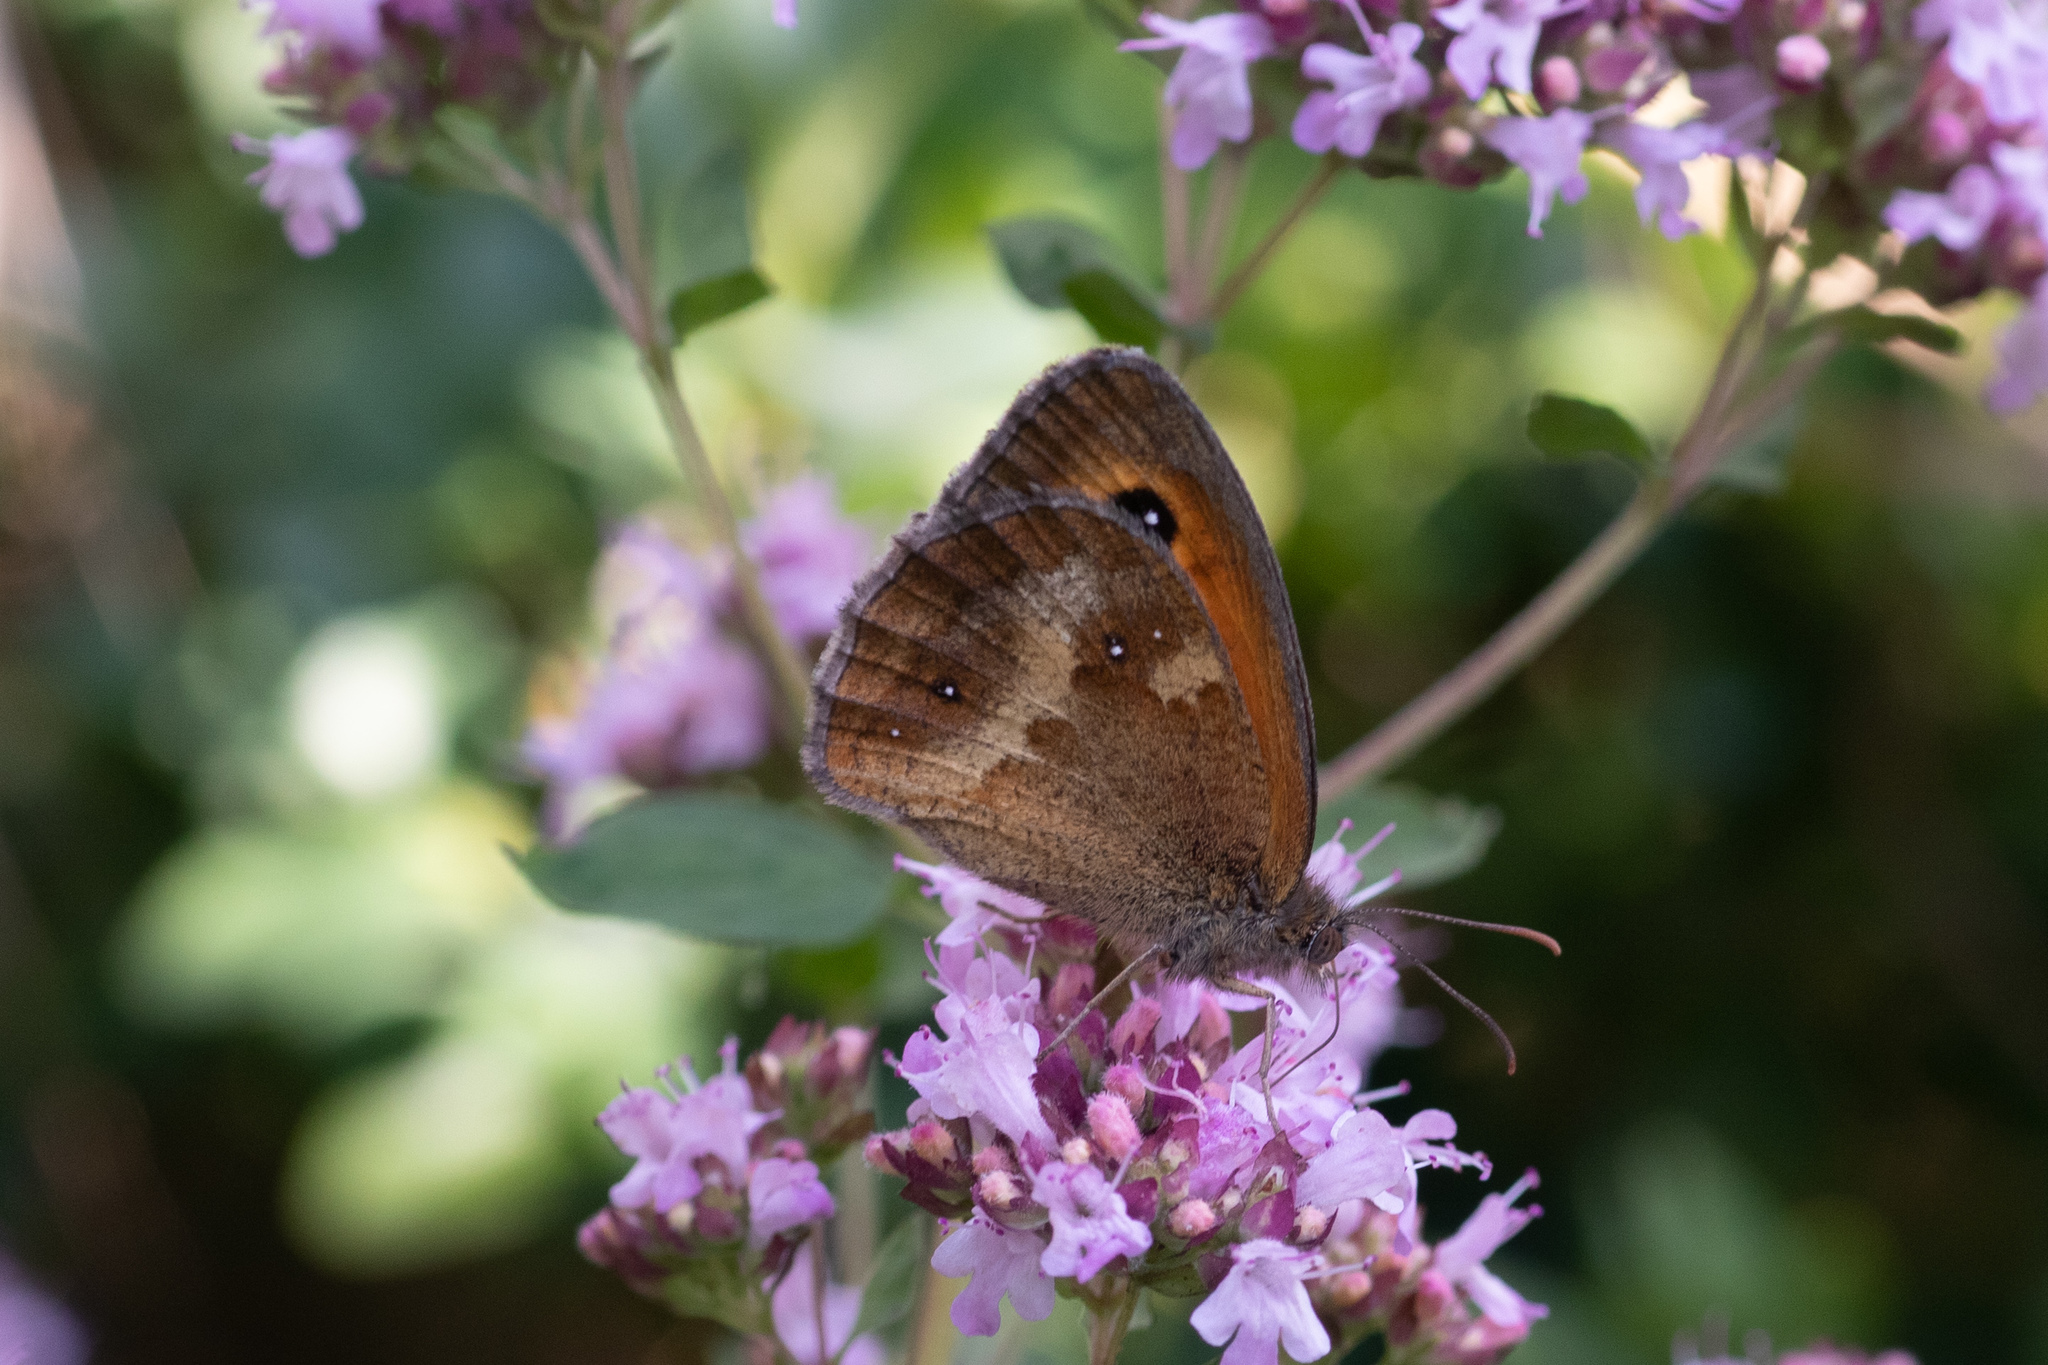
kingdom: Animalia
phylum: Arthropoda
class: Insecta
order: Lepidoptera
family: Nymphalidae
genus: Pyronia
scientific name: Pyronia tithonus
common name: Gatekeeper
